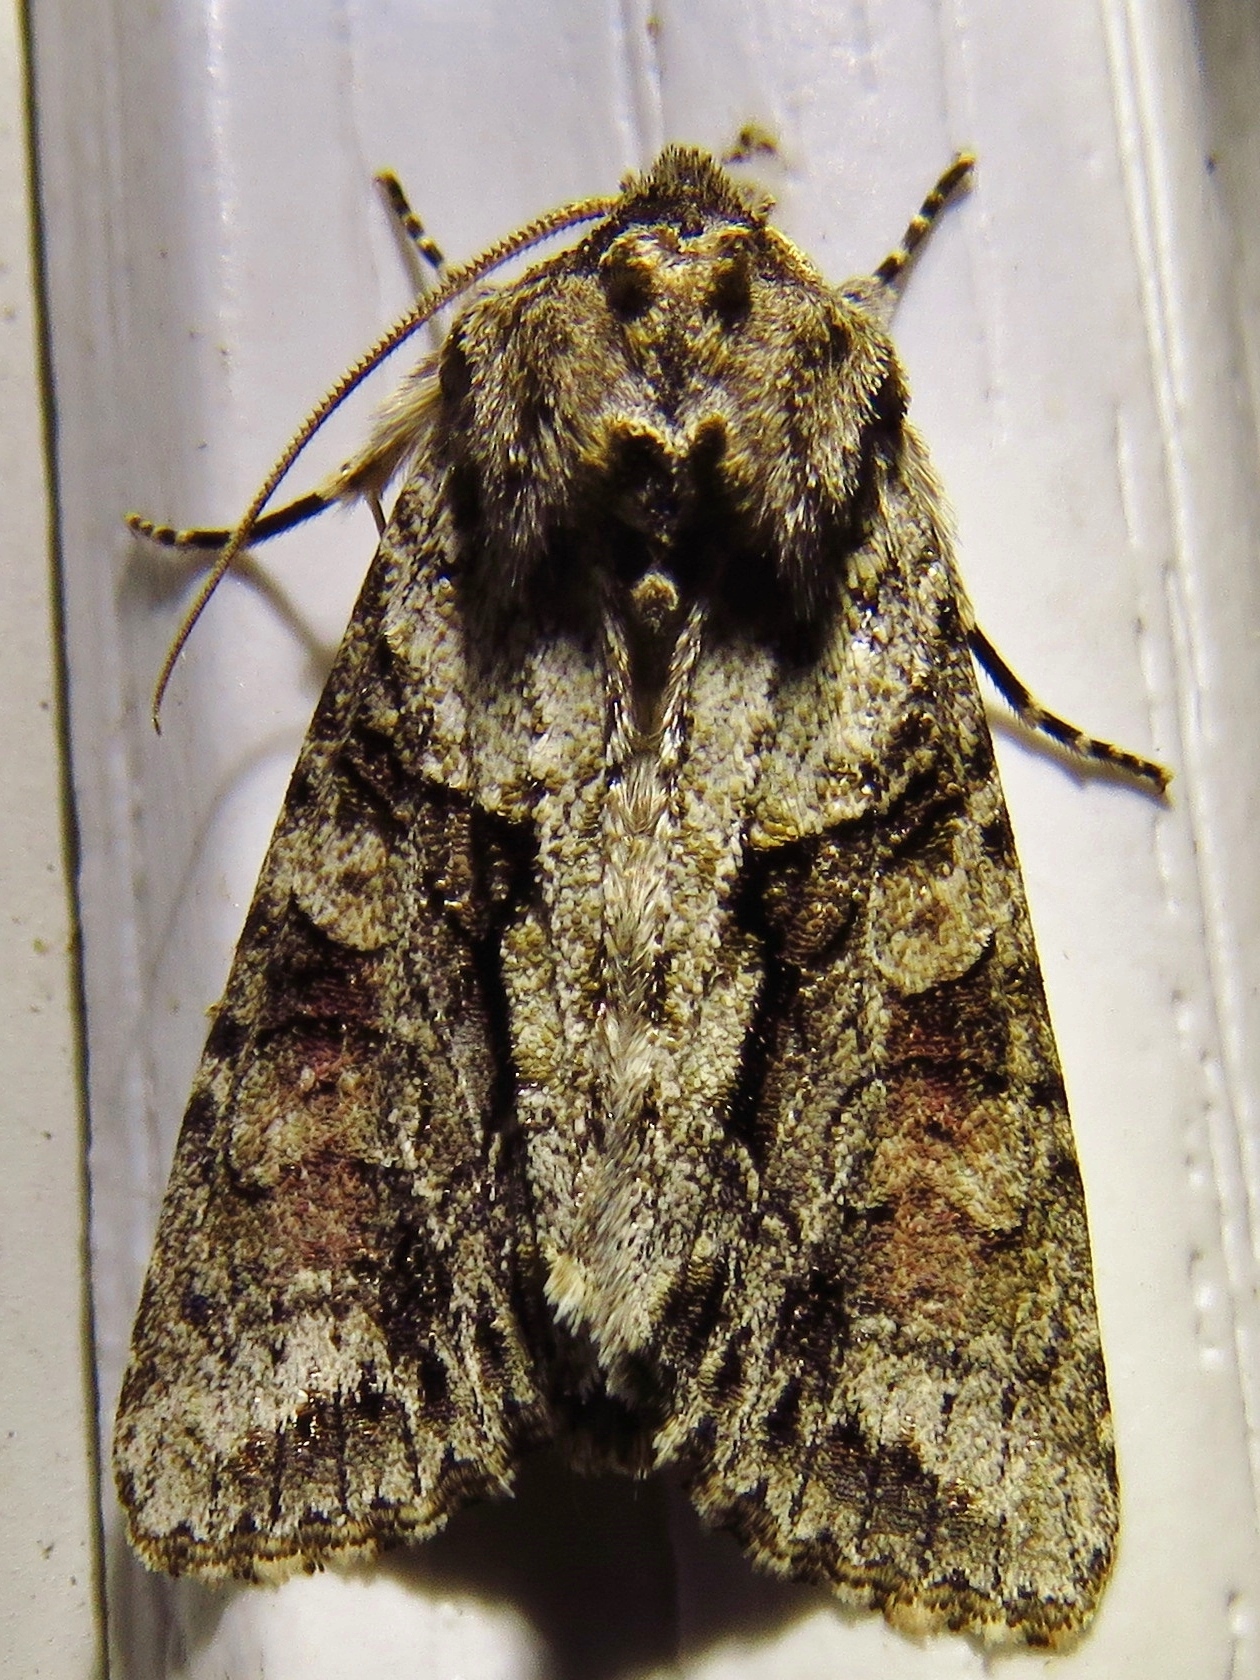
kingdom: Animalia
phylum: Arthropoda
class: Insecta
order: Lepidoptera
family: Noctuidae
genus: Achatia
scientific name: Achatia distincta
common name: Distinct quaker
